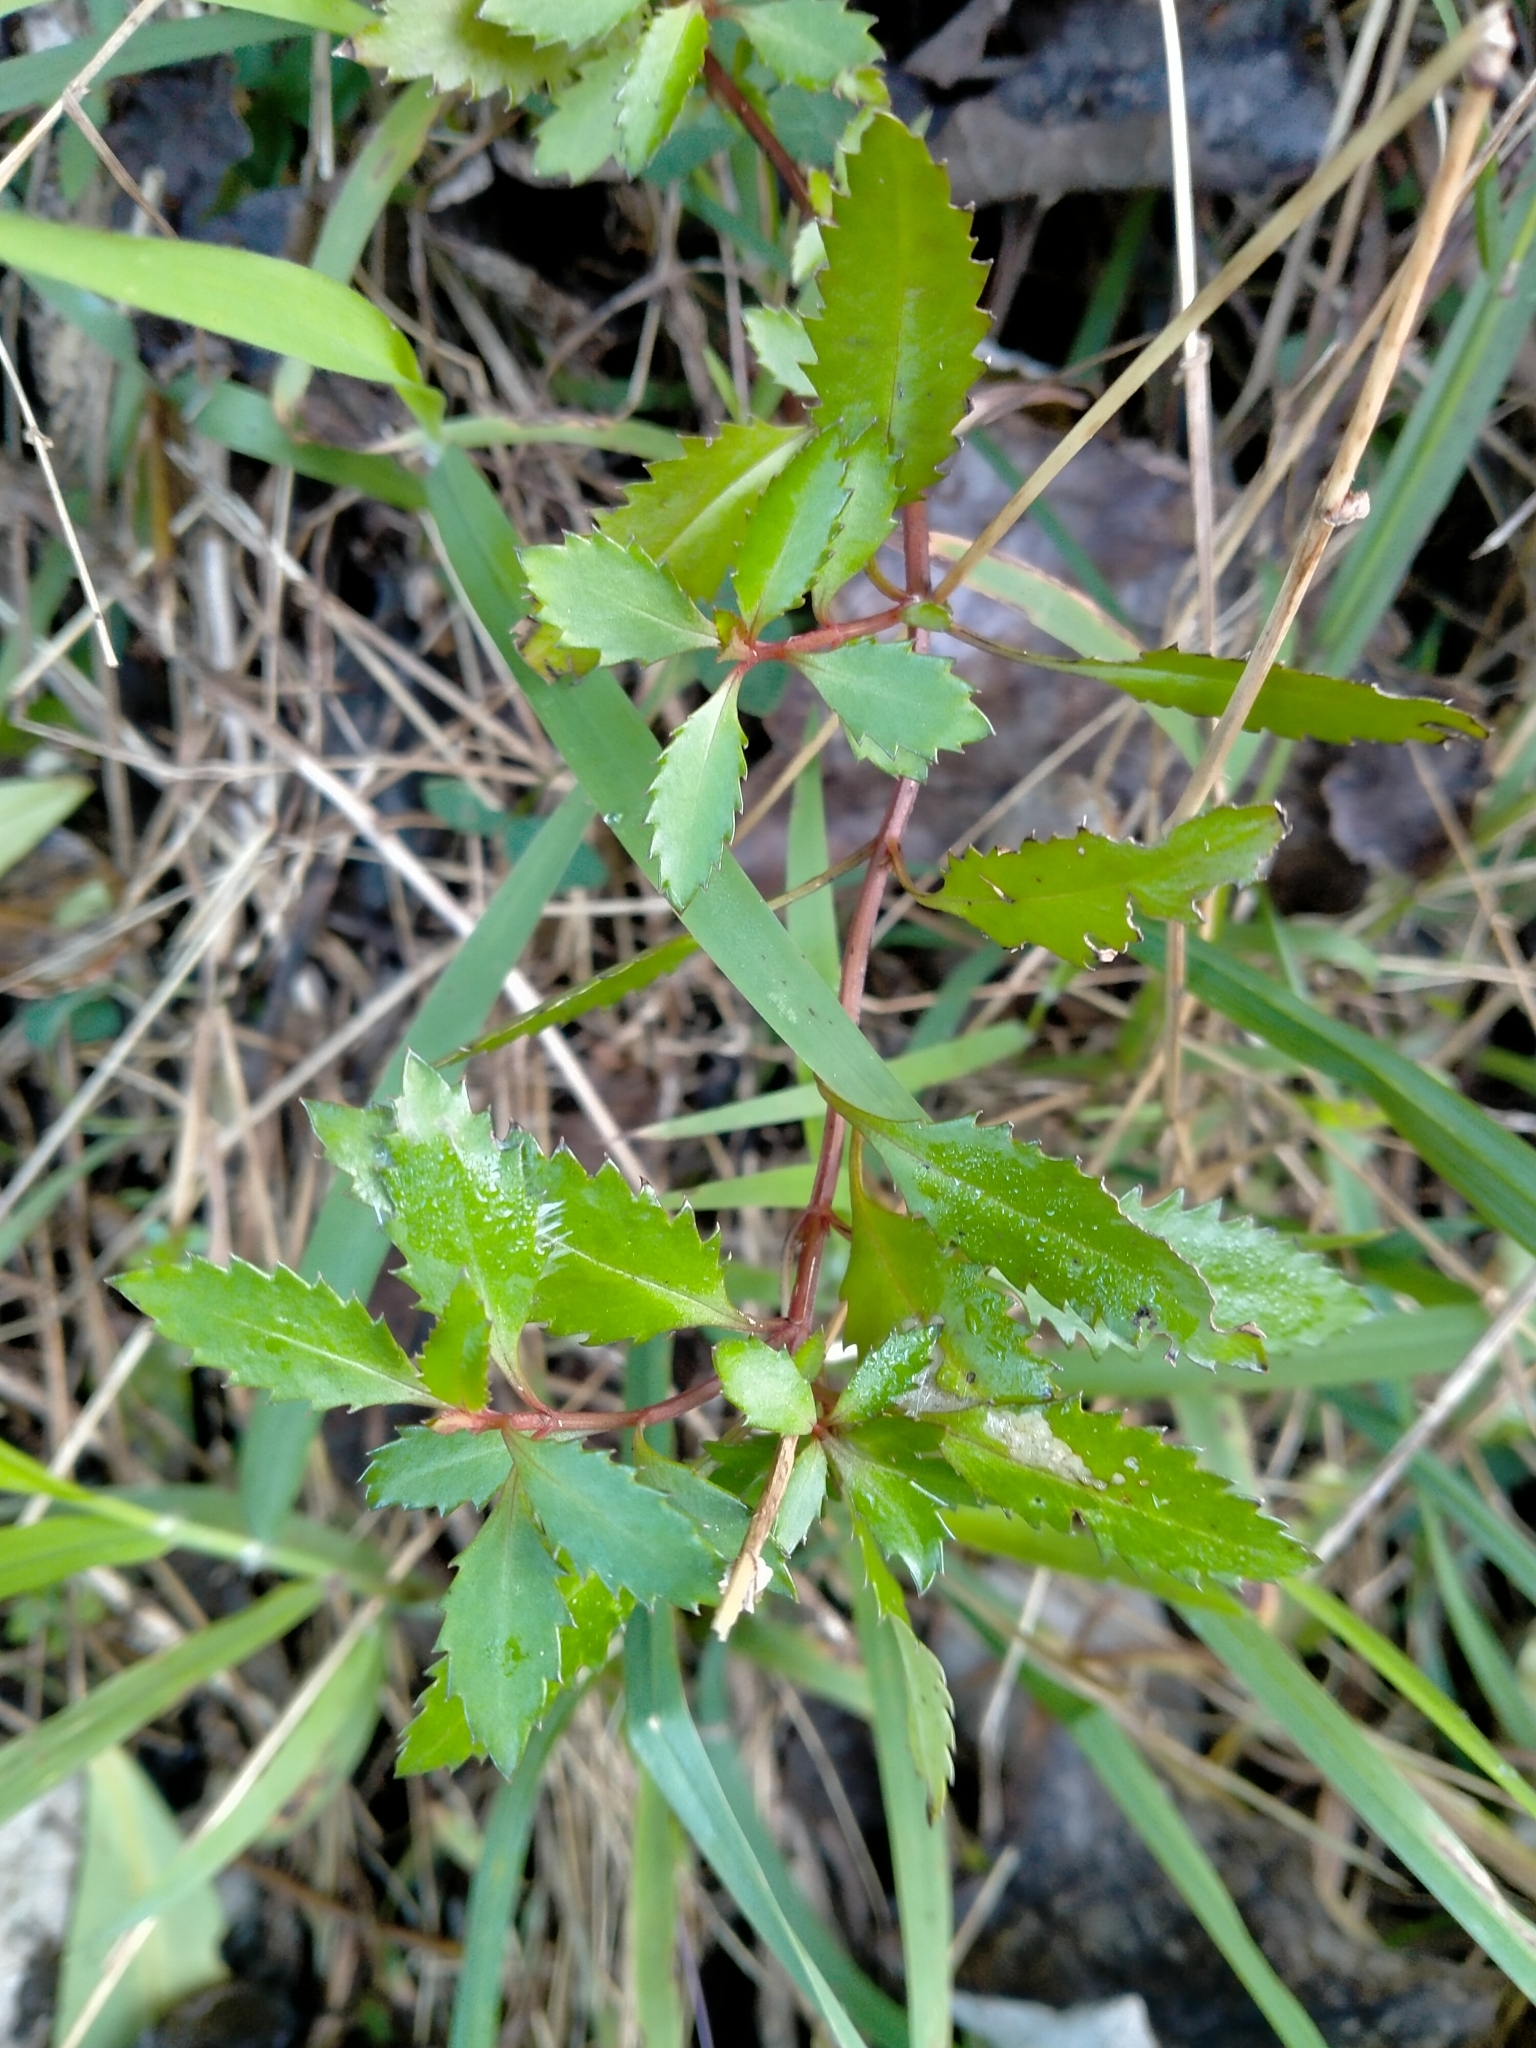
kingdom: Plantae
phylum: Tracheophyta
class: Magnoliopsida
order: Saxifragales
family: Haloragaceae
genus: Haloragis
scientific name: Haloragis erecta
